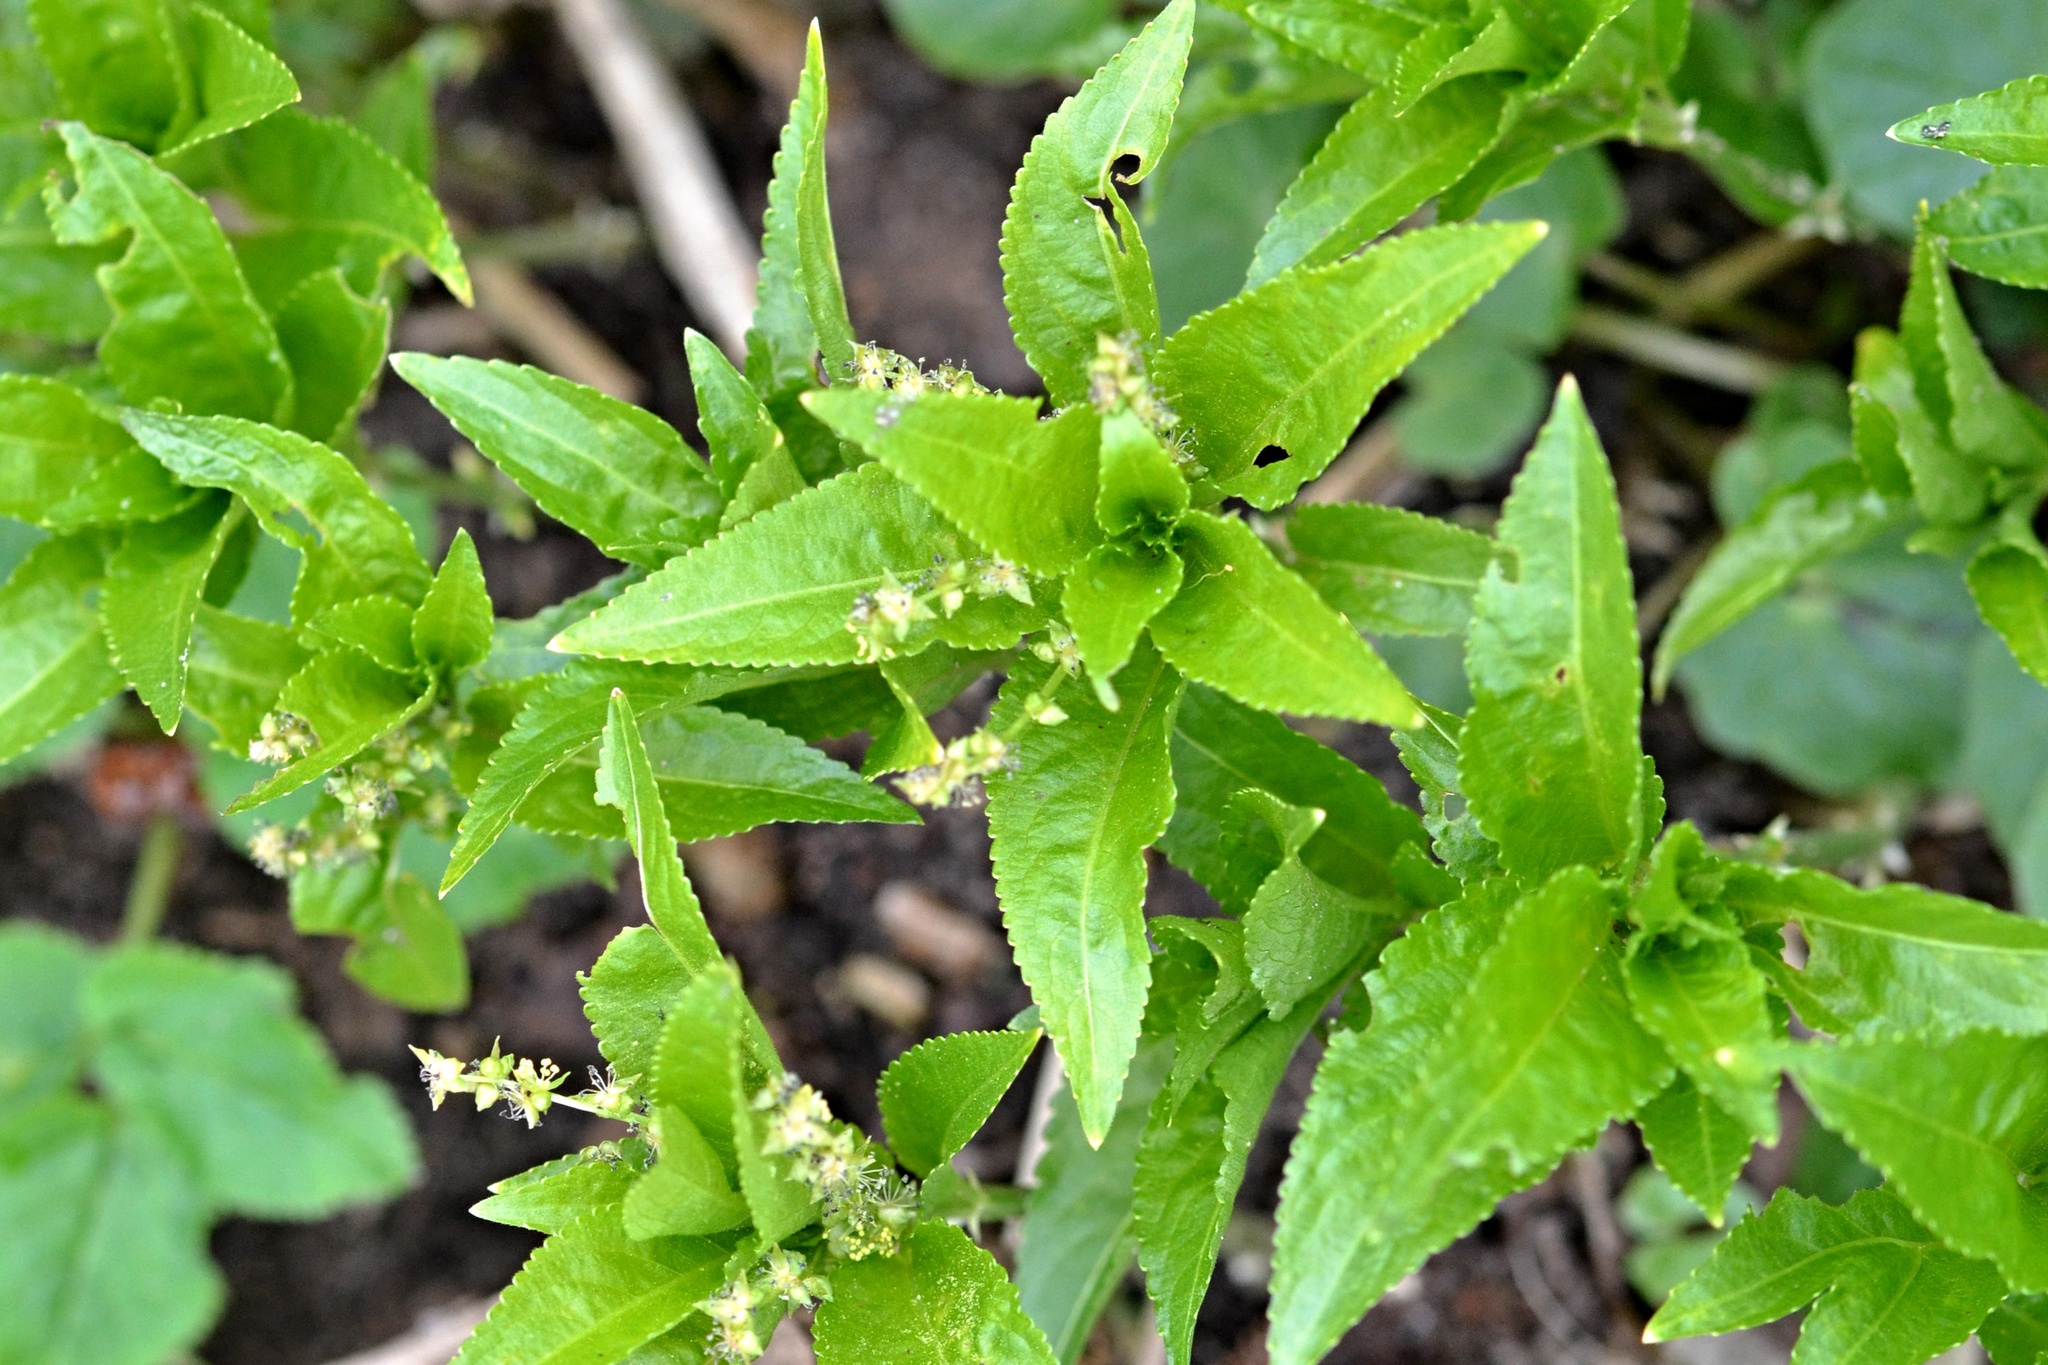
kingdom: Plantae
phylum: Tracheophyta
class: Magnoliopsida
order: Malpighiales
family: Euphorbiaceae
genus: Mercurialis
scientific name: Mercurialis perennis
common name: Dog mercury
